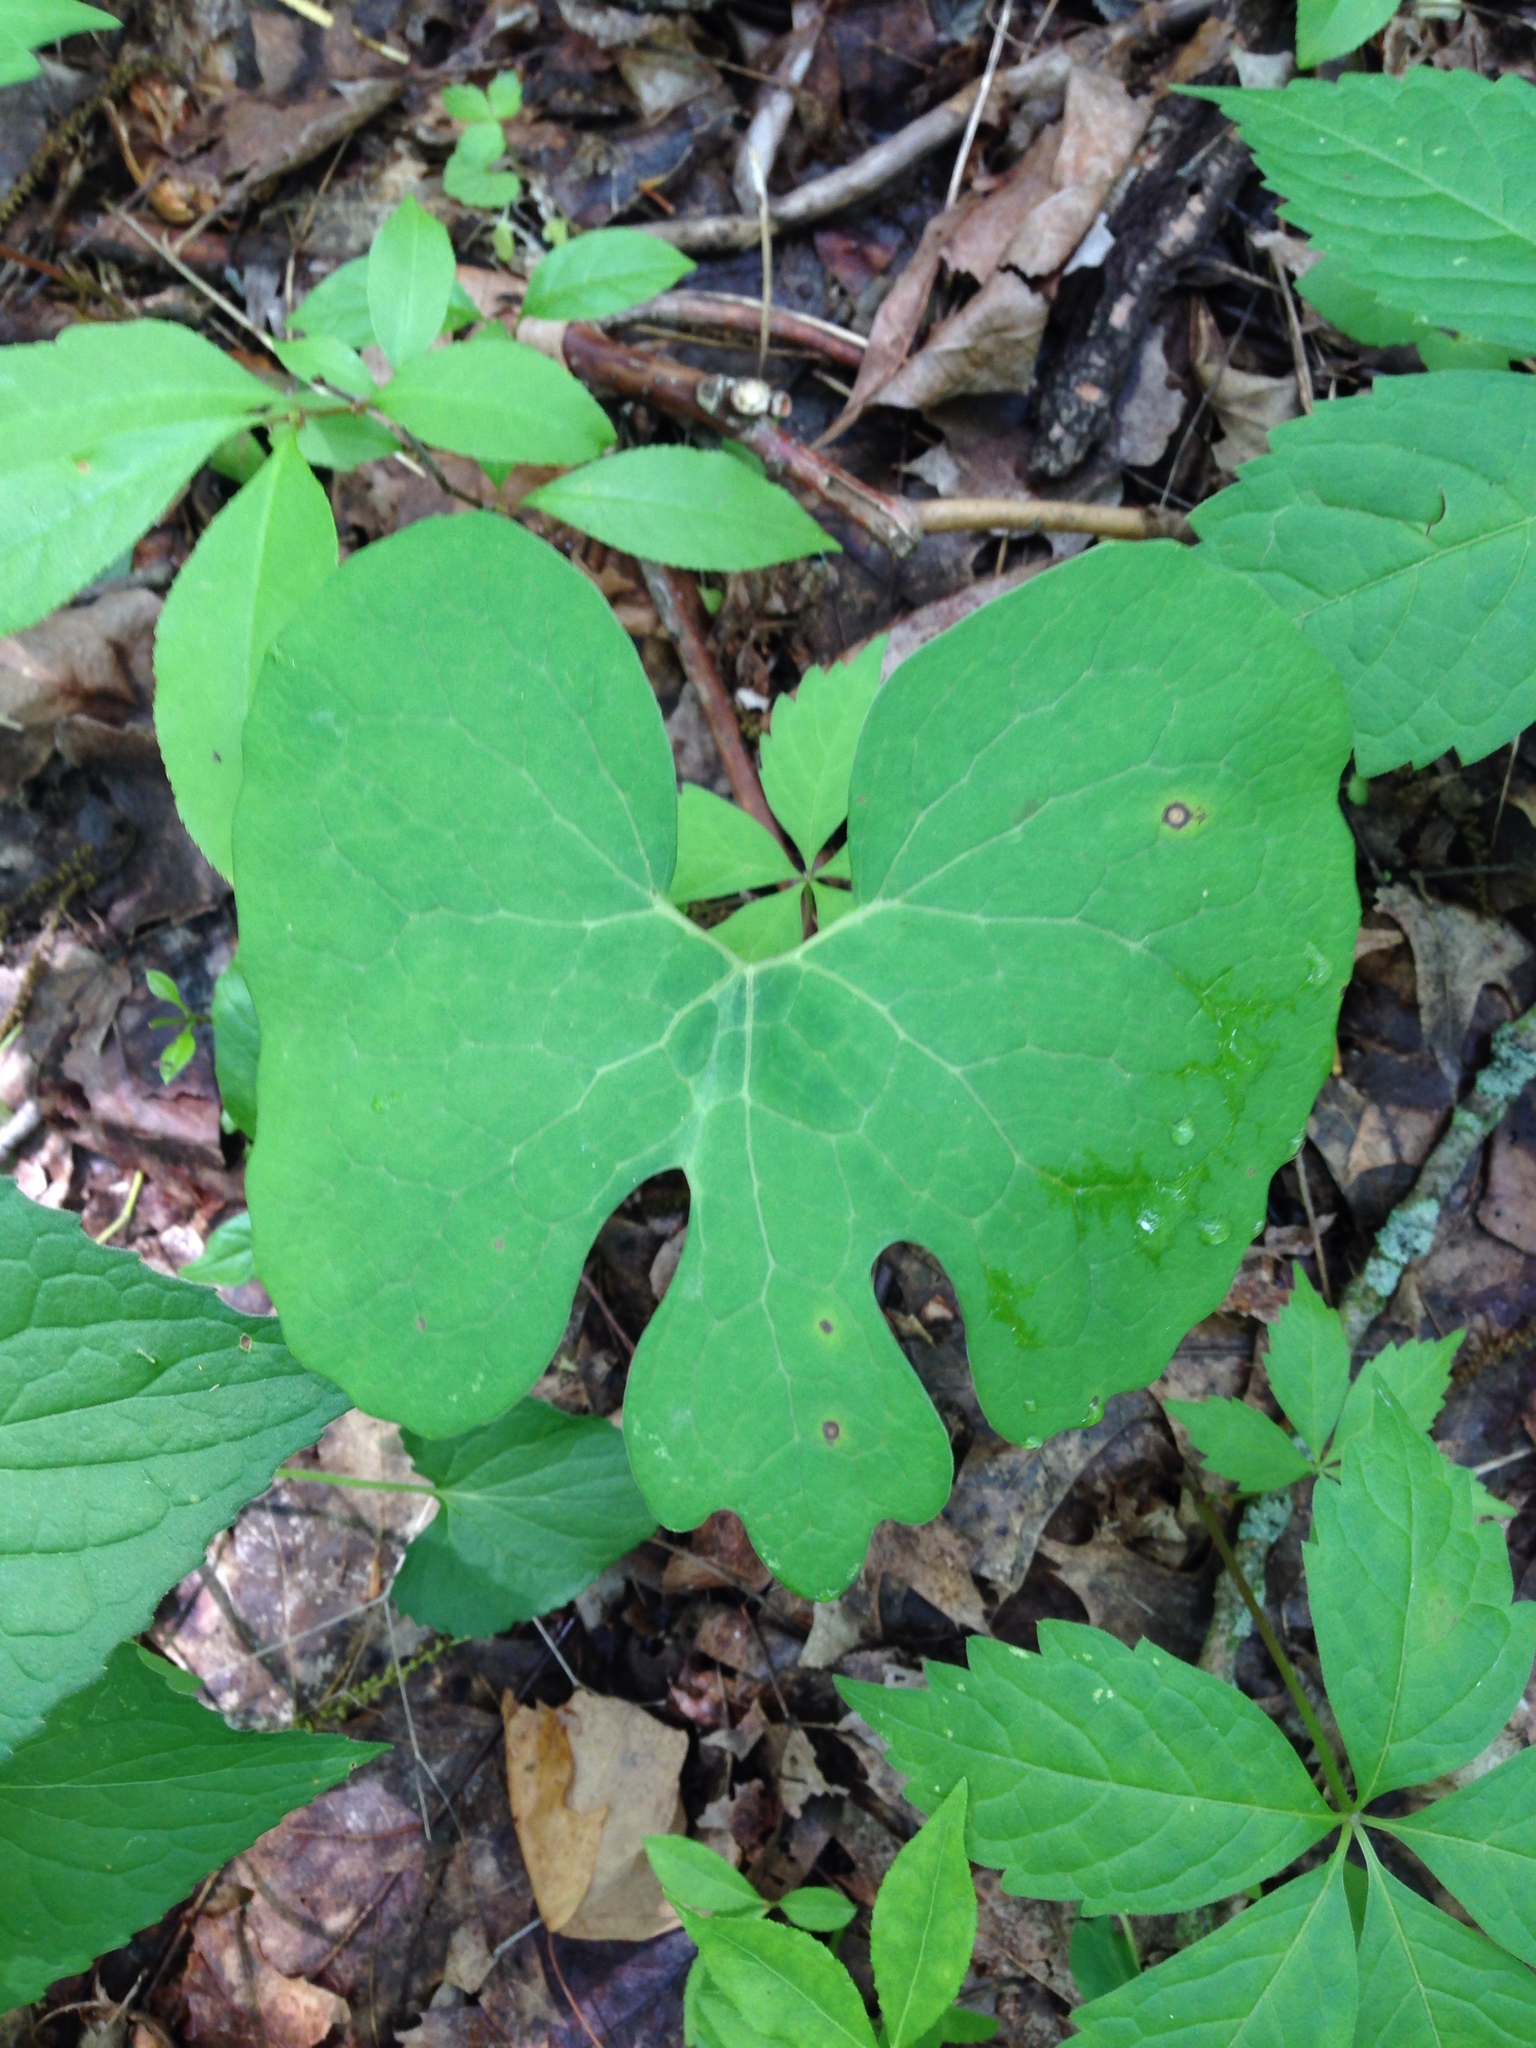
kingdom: Plantae
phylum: Tracheophyta
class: Magnoliopsida
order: Ranunculales
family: Papaveraceae
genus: Sanguinaria
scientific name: Sanguinaria canadensis
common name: Bloodroot
